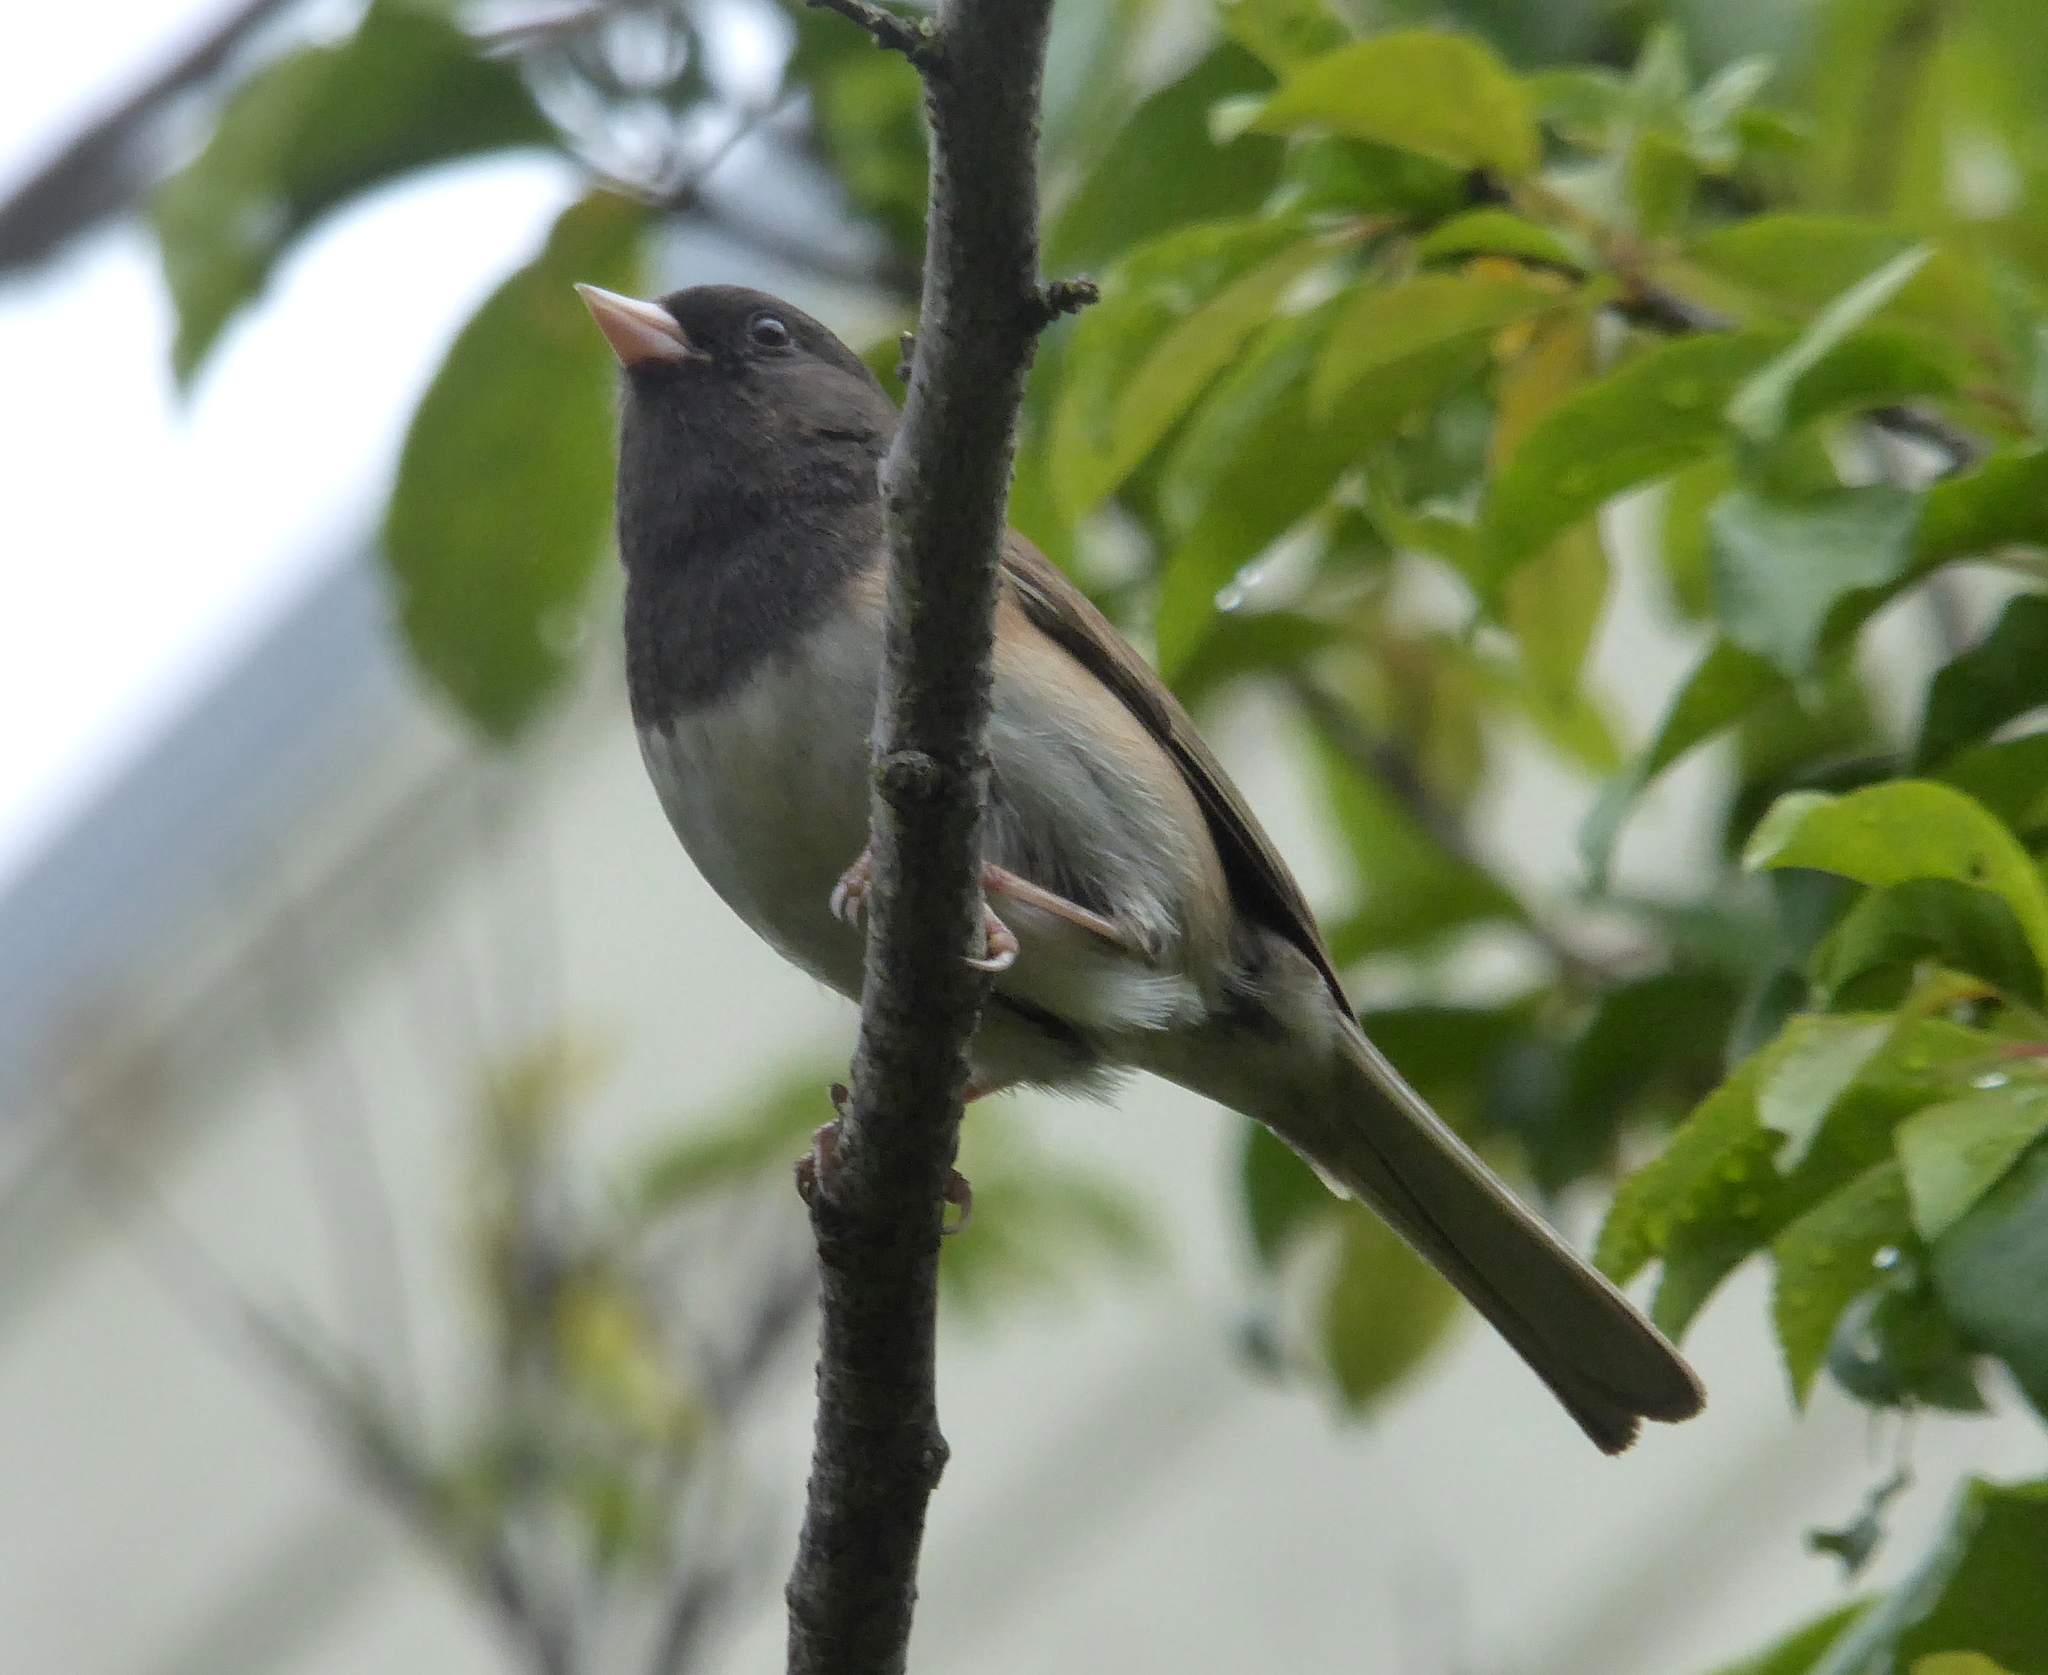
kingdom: Animalia
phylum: Chordata
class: Aves
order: Passeriformes
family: Passerellidae
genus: Junco
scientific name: Junco hyemalis
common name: Dark-eyed junco
